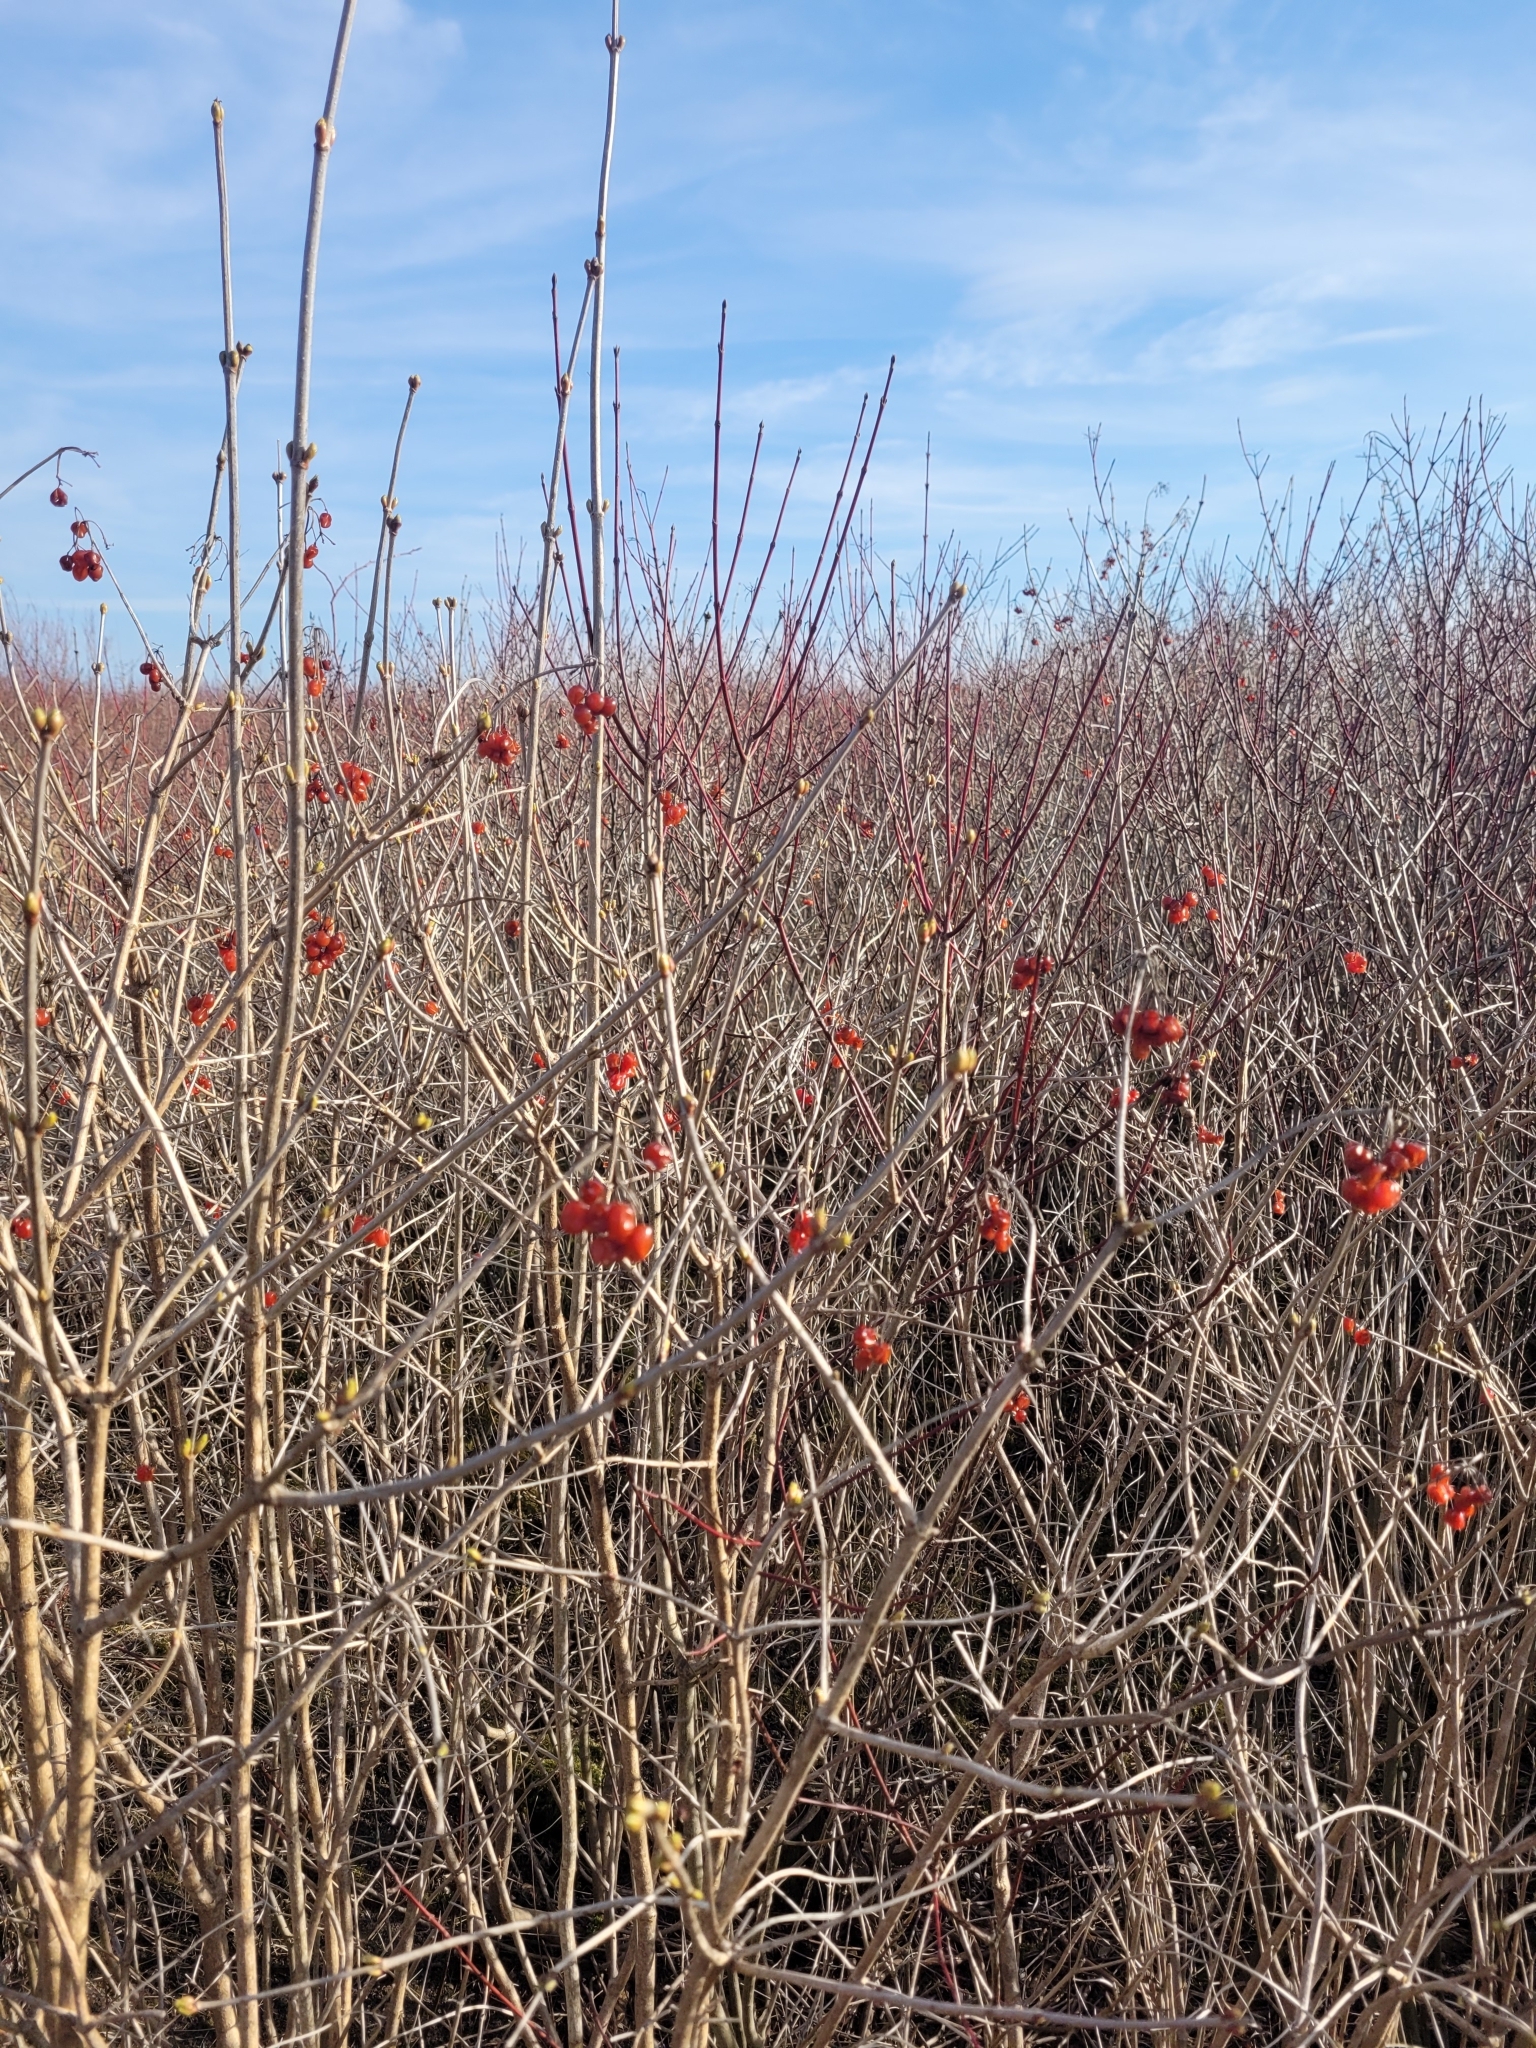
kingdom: Plantae
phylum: Tracheophyta
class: Magnoliopsida
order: Dipsacales
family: Viburnaceae
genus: Viburnum
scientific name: Viburnum opulus
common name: Guelder-rose
